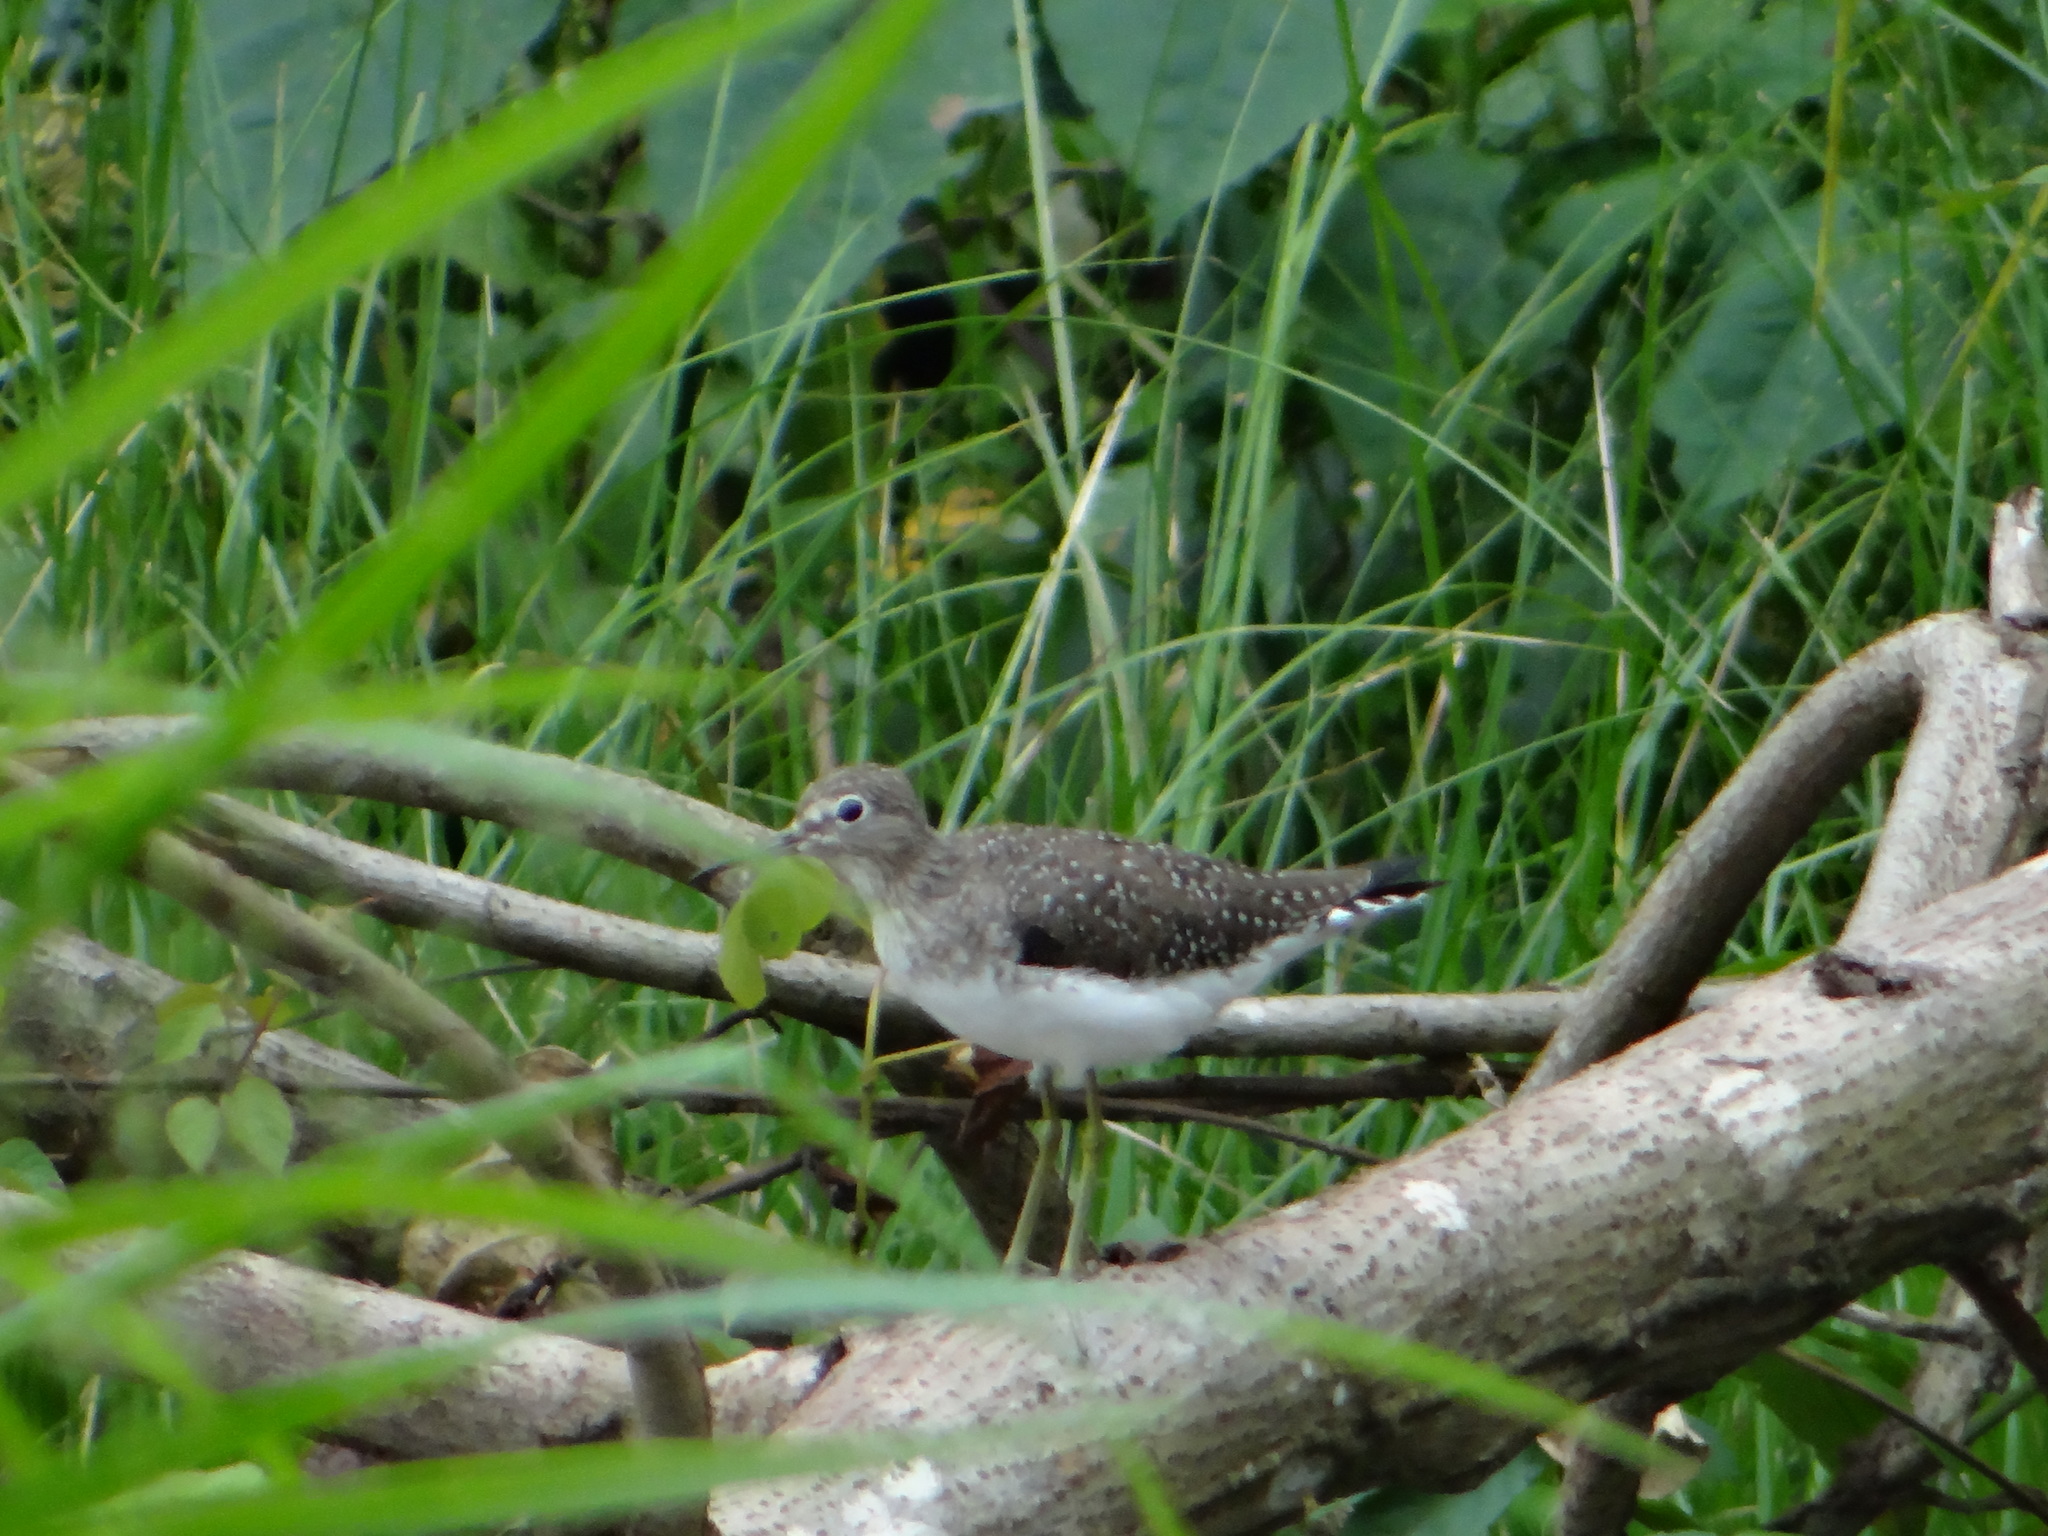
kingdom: Animalia
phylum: Chordata
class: Aves
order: Charadriiformes
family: Scolopacidae
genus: Tringa
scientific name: Tringa solitaria
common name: Solitary sandpiper
